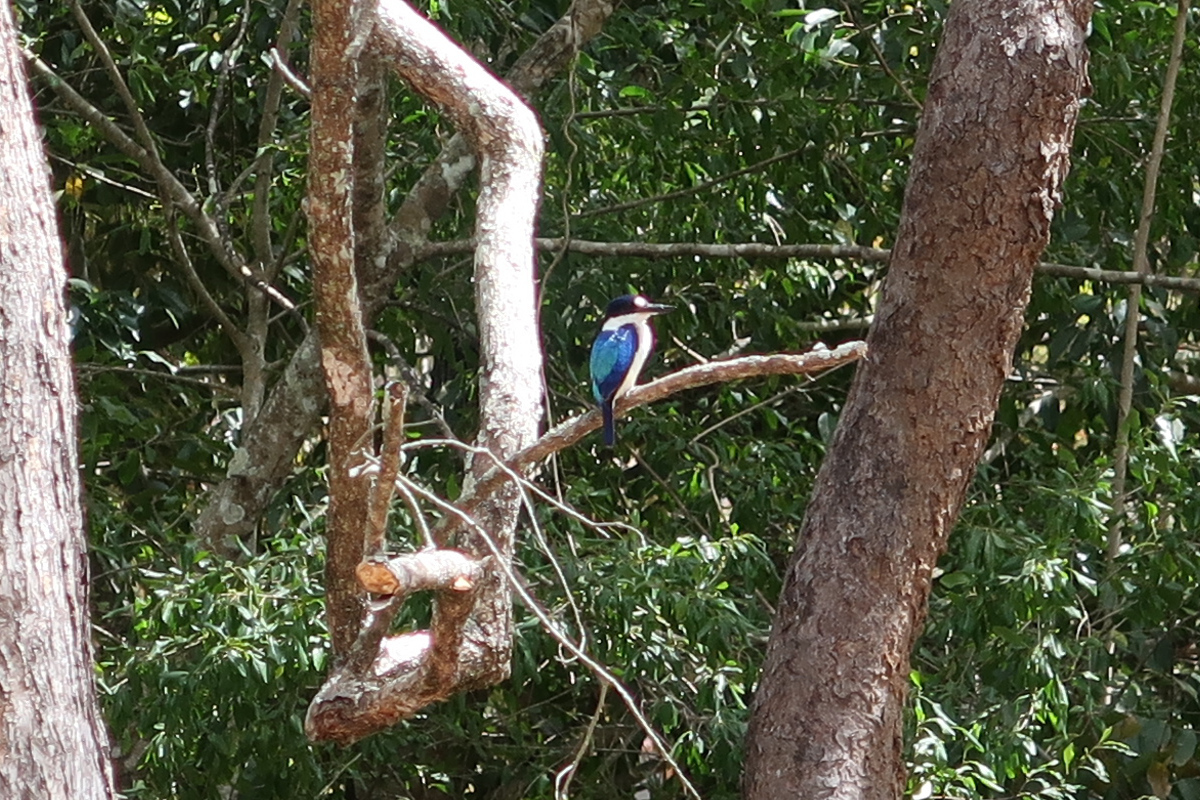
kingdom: Animalia
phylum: Chordata
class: Aves
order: Coraciiformes
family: Alcedinidae
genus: Todiramphus
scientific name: Todiramphus macleayii
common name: Forest kingfisher
